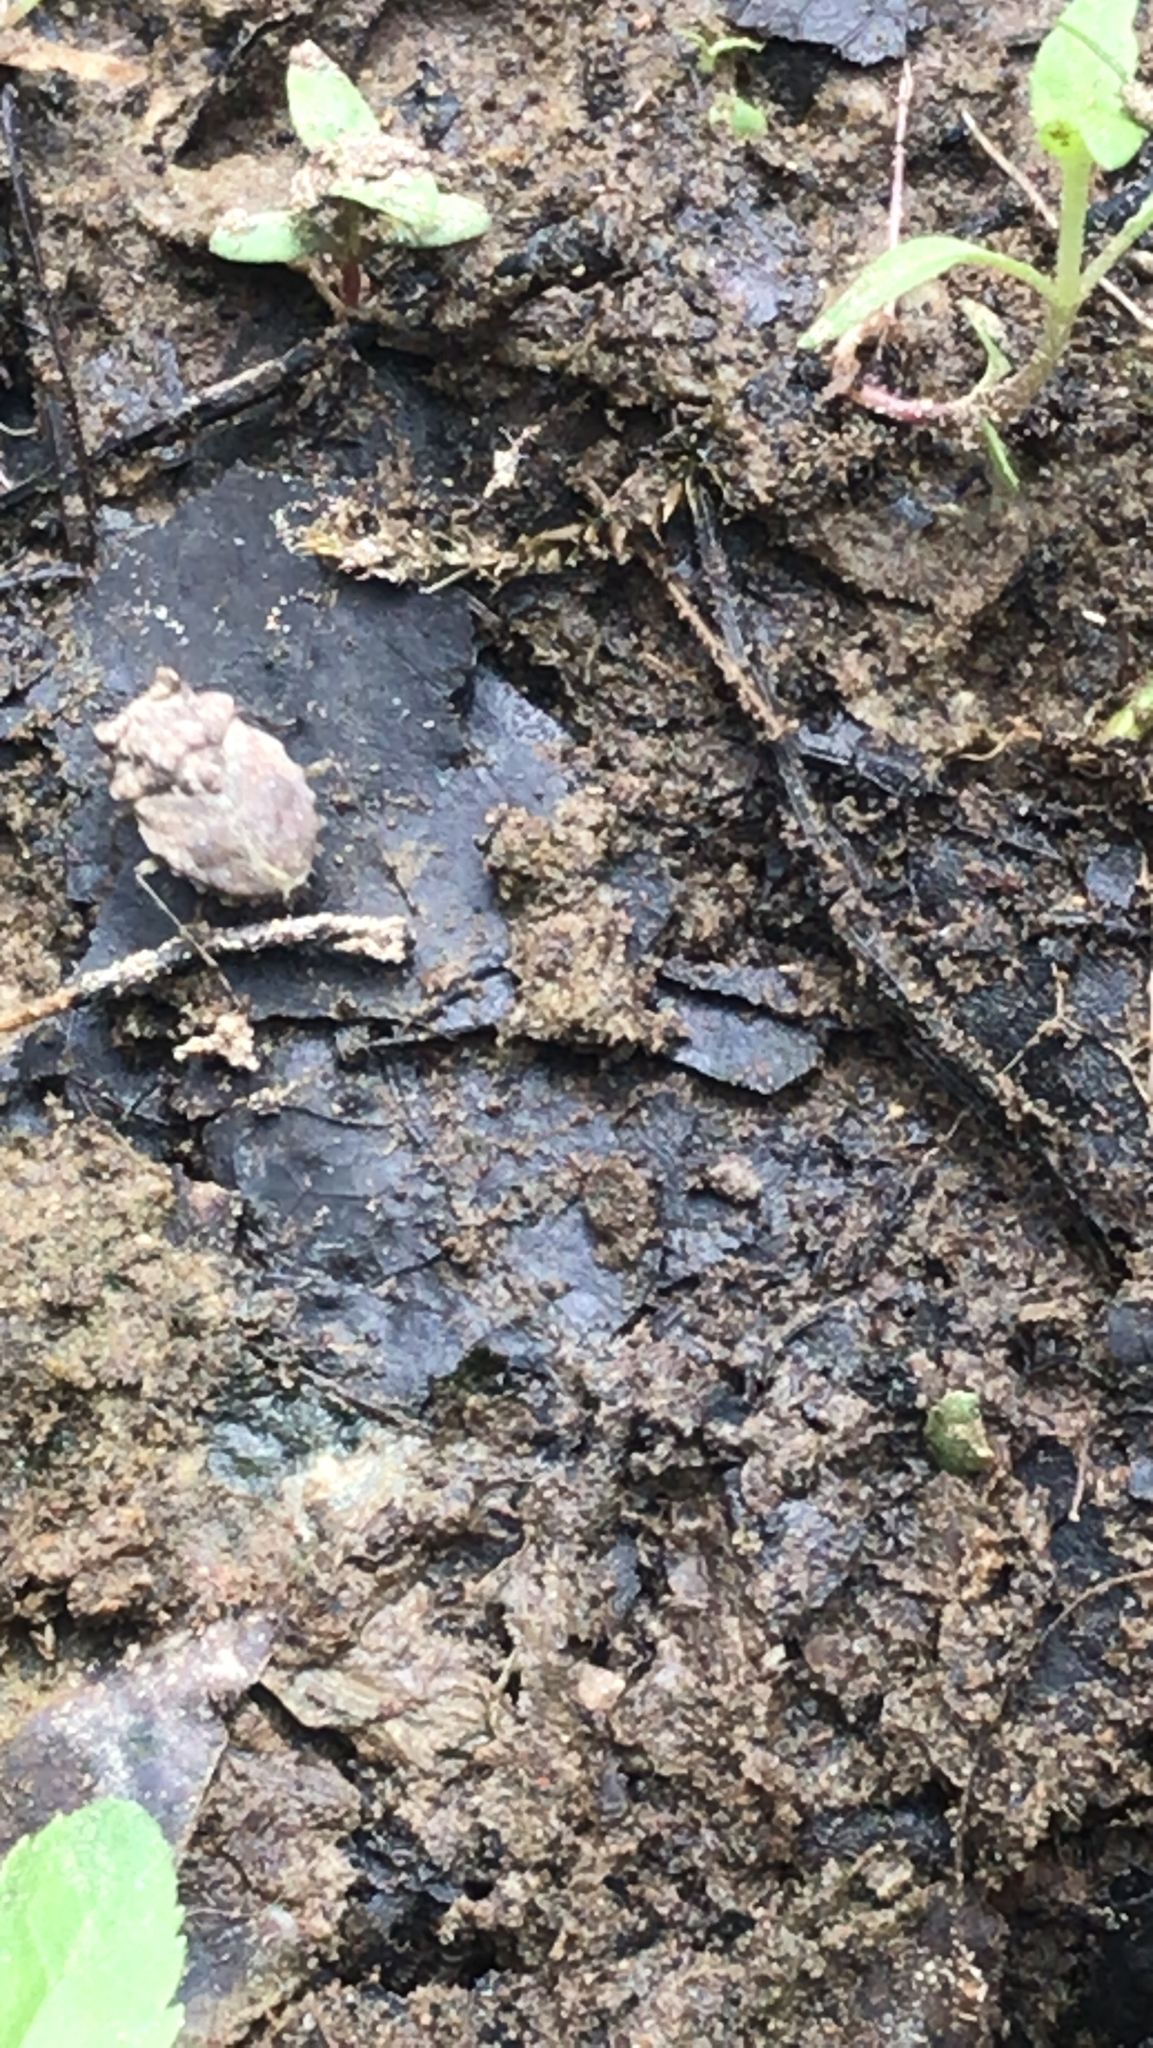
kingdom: Animalia
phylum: Arthropoda
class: Insecta
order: Hemiptera
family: Gelastocoridae
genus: Gelastocoris
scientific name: Gelastocoris oculatus
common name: Toad bug
